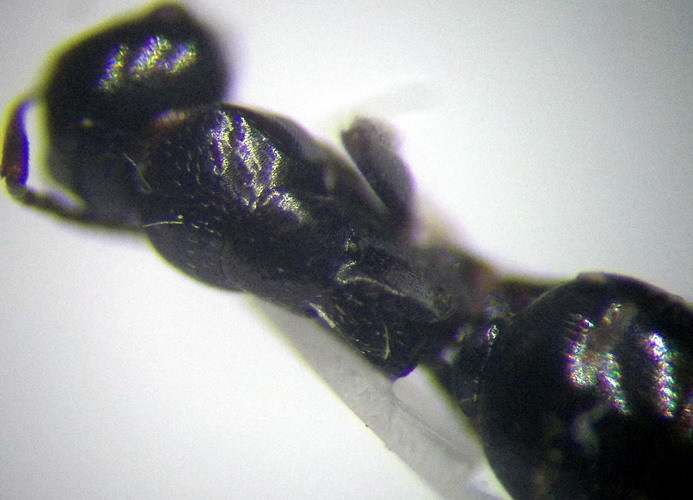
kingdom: Animalia
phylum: Arthropoda
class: Insecta
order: Hymenoptera
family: Formicidae
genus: Camponotus
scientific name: Camponotus piceus
